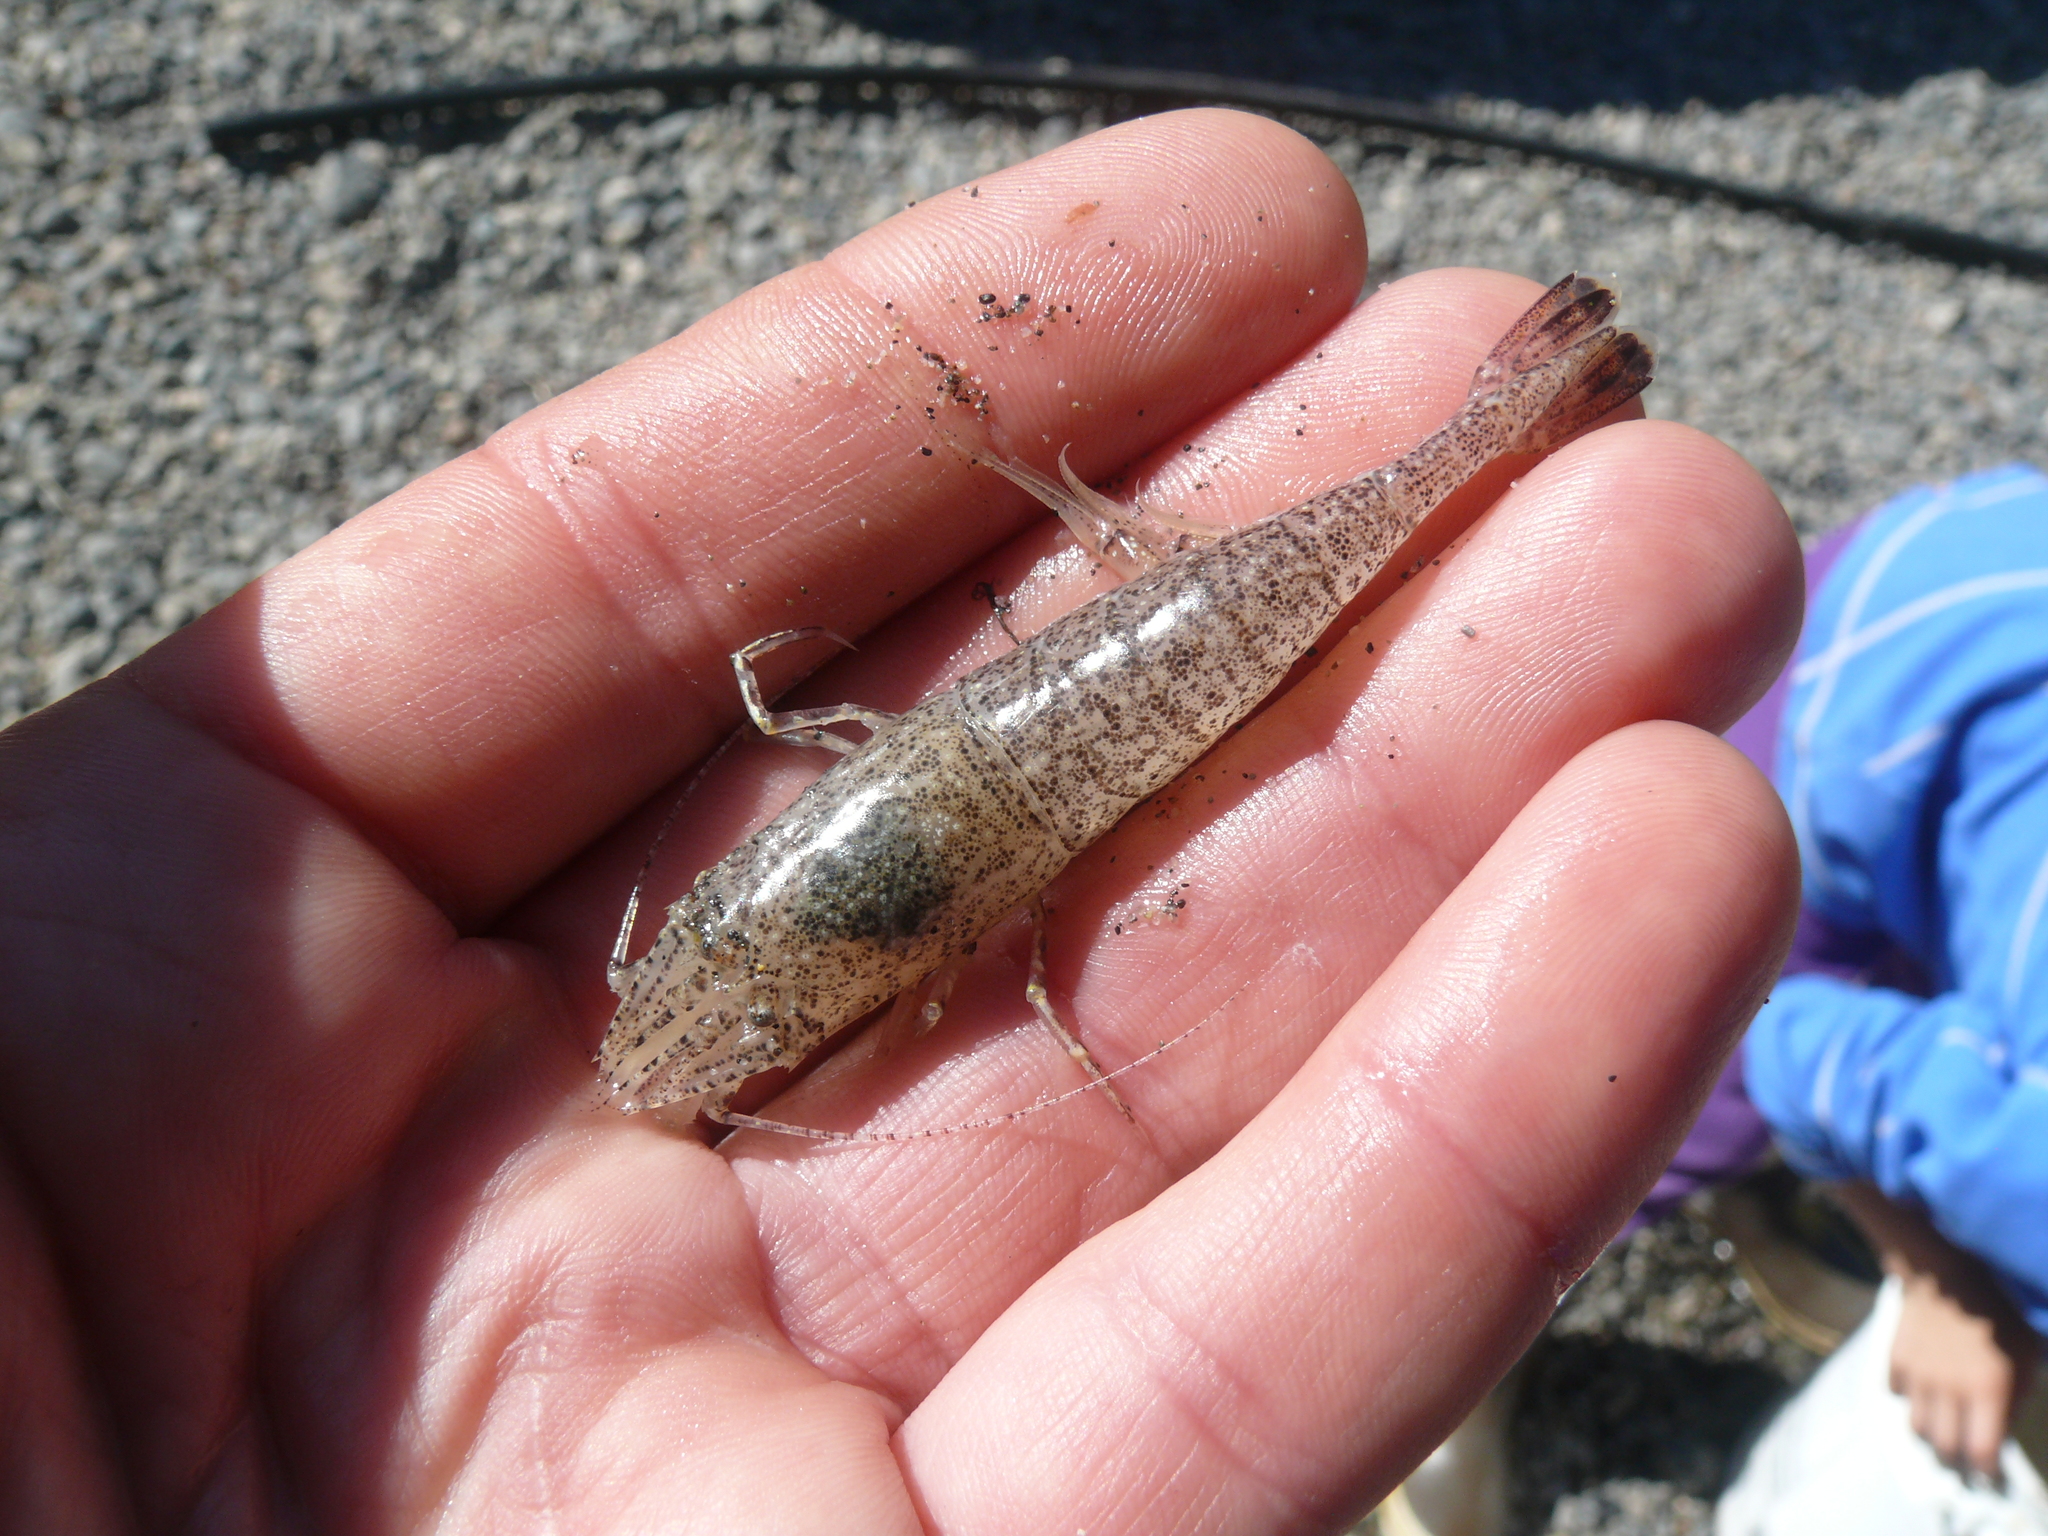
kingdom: Animalia
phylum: Arthropoda
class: Malacostraca
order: Decapoda
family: Crangonidae
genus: Lissocrangon
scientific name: Lissocrangon stylirostris
